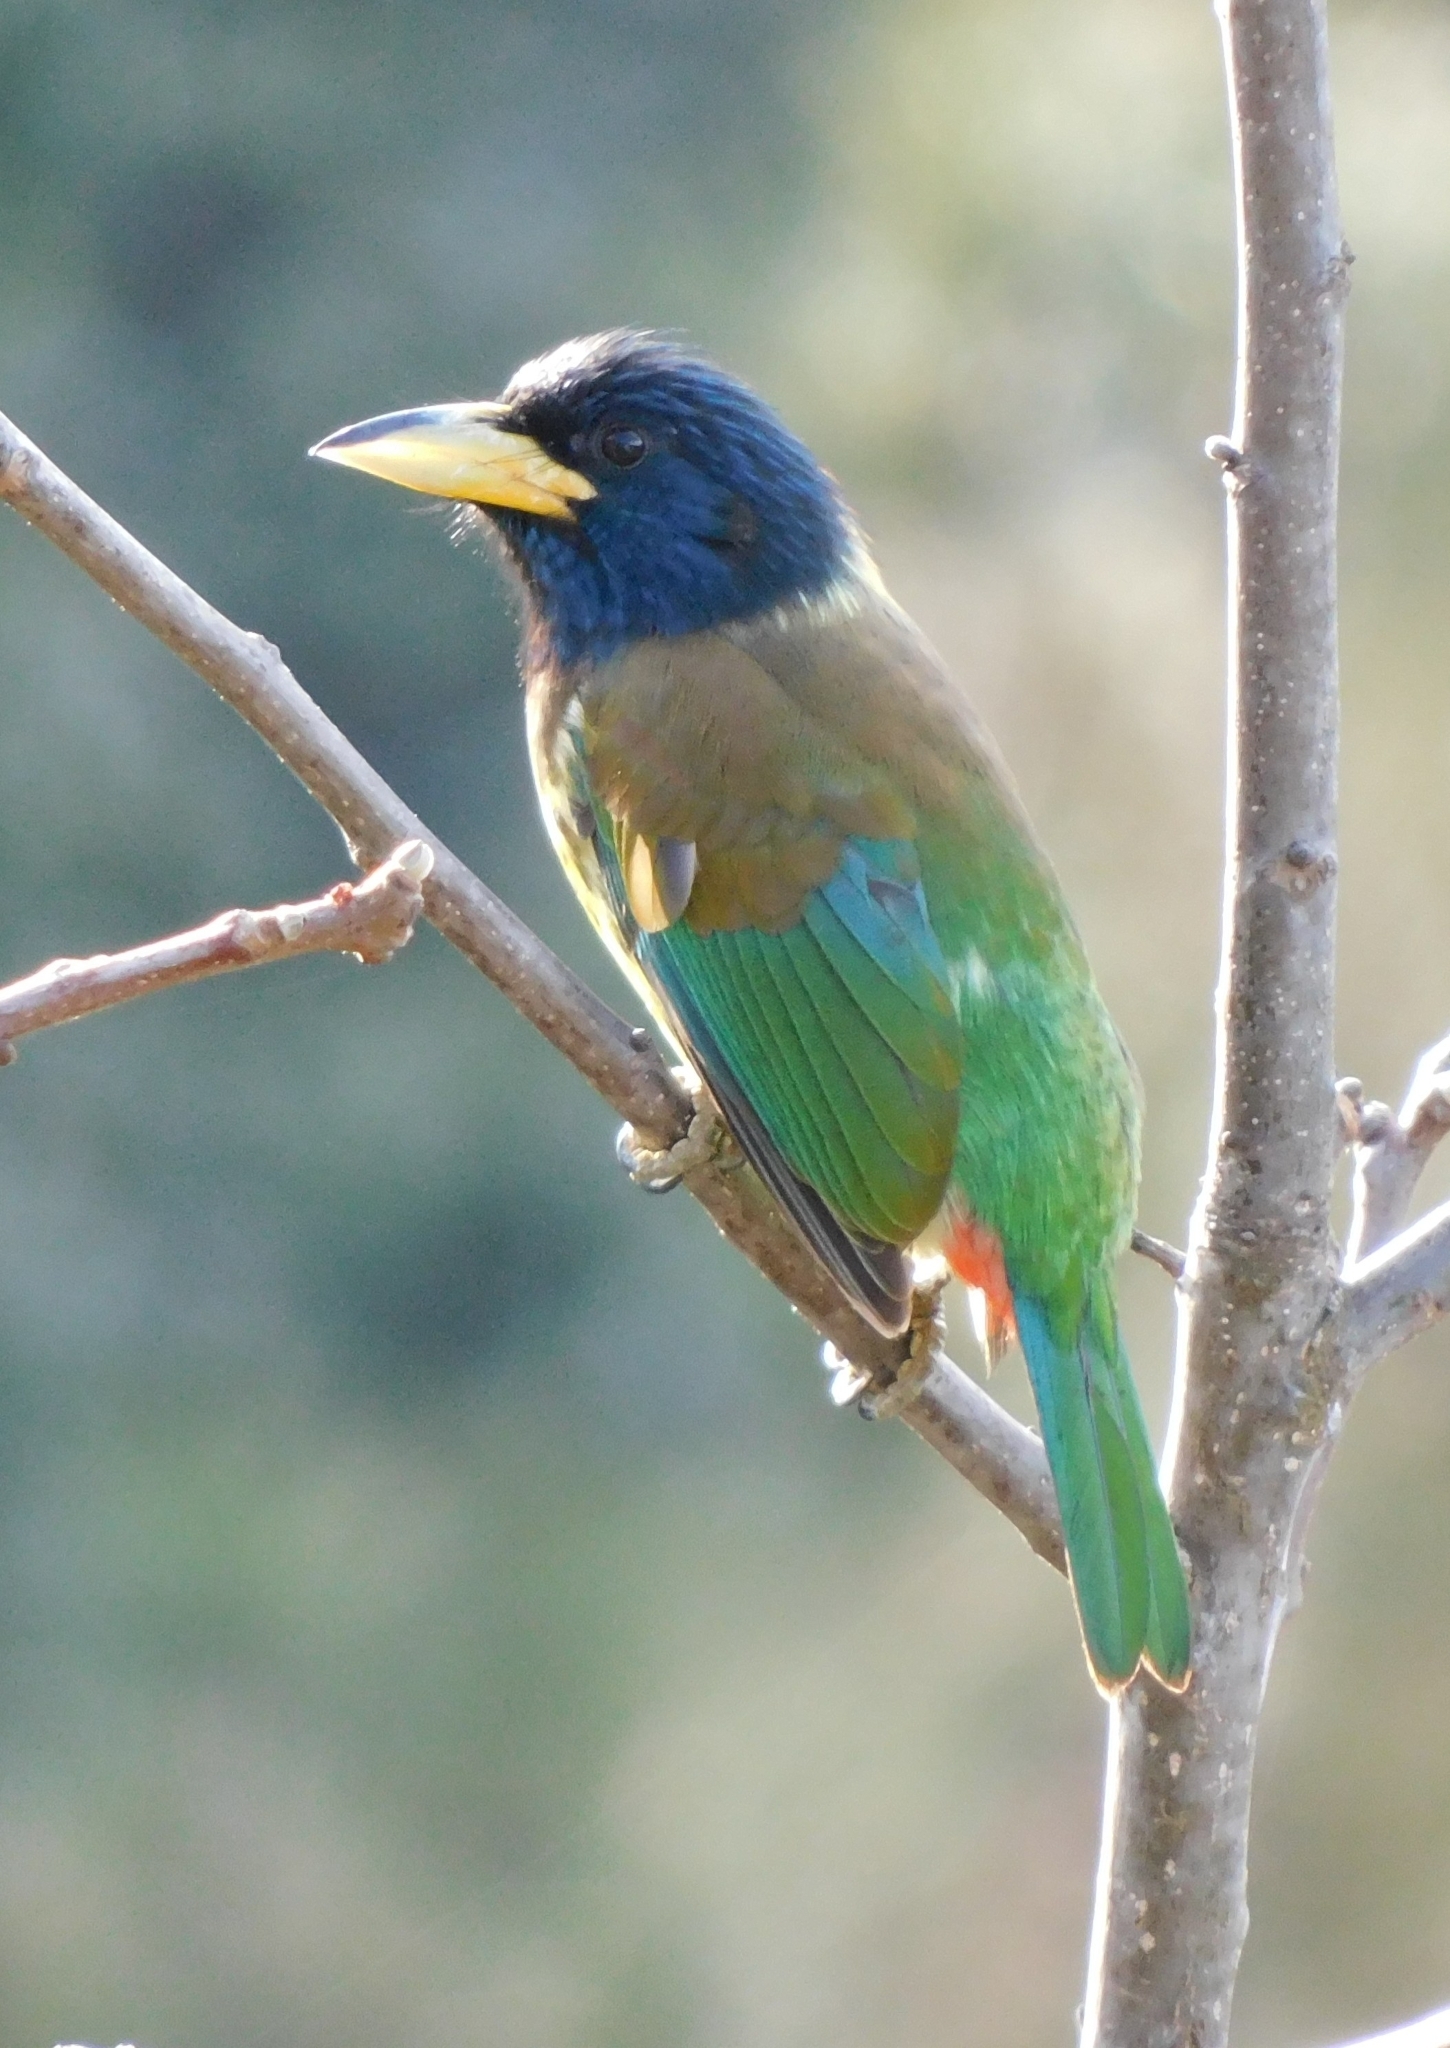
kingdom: Animalia
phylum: Chordata
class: Aves
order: Piciformes
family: Megalaimidae
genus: Psilopogon
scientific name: Psilopogon virens
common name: Great barbet
